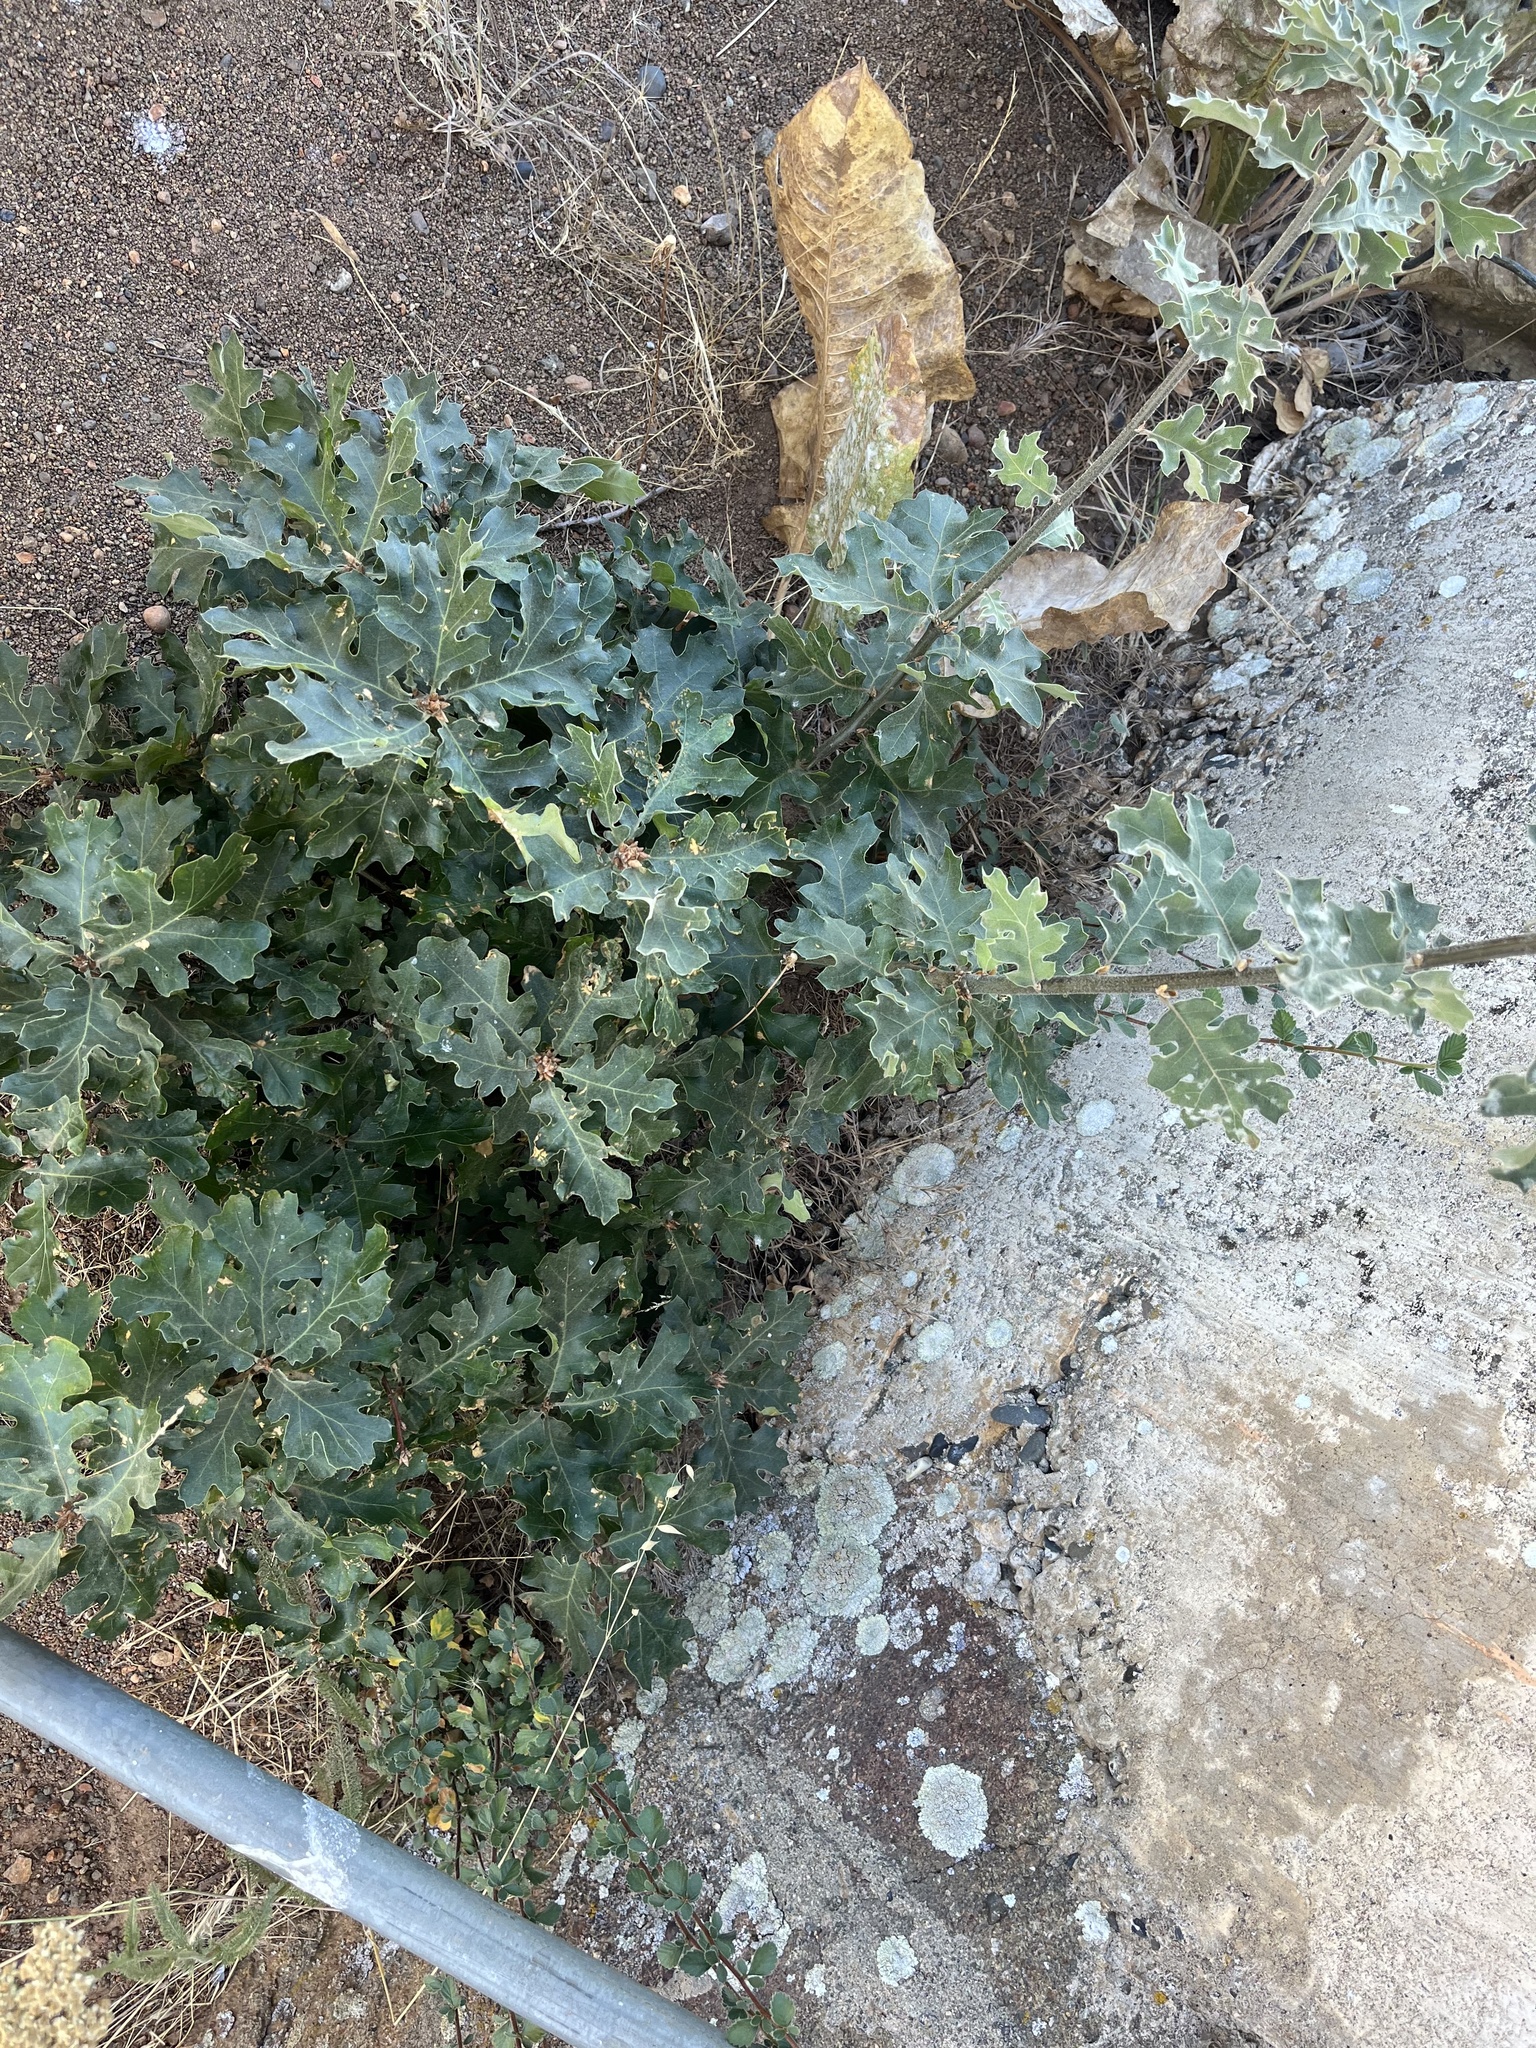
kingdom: Plantae
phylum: Tracheophyta
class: Magnoliopsida
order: Fagales
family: Fagaceae
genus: Quercus
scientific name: Quercus kelloggii
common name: California black oak
